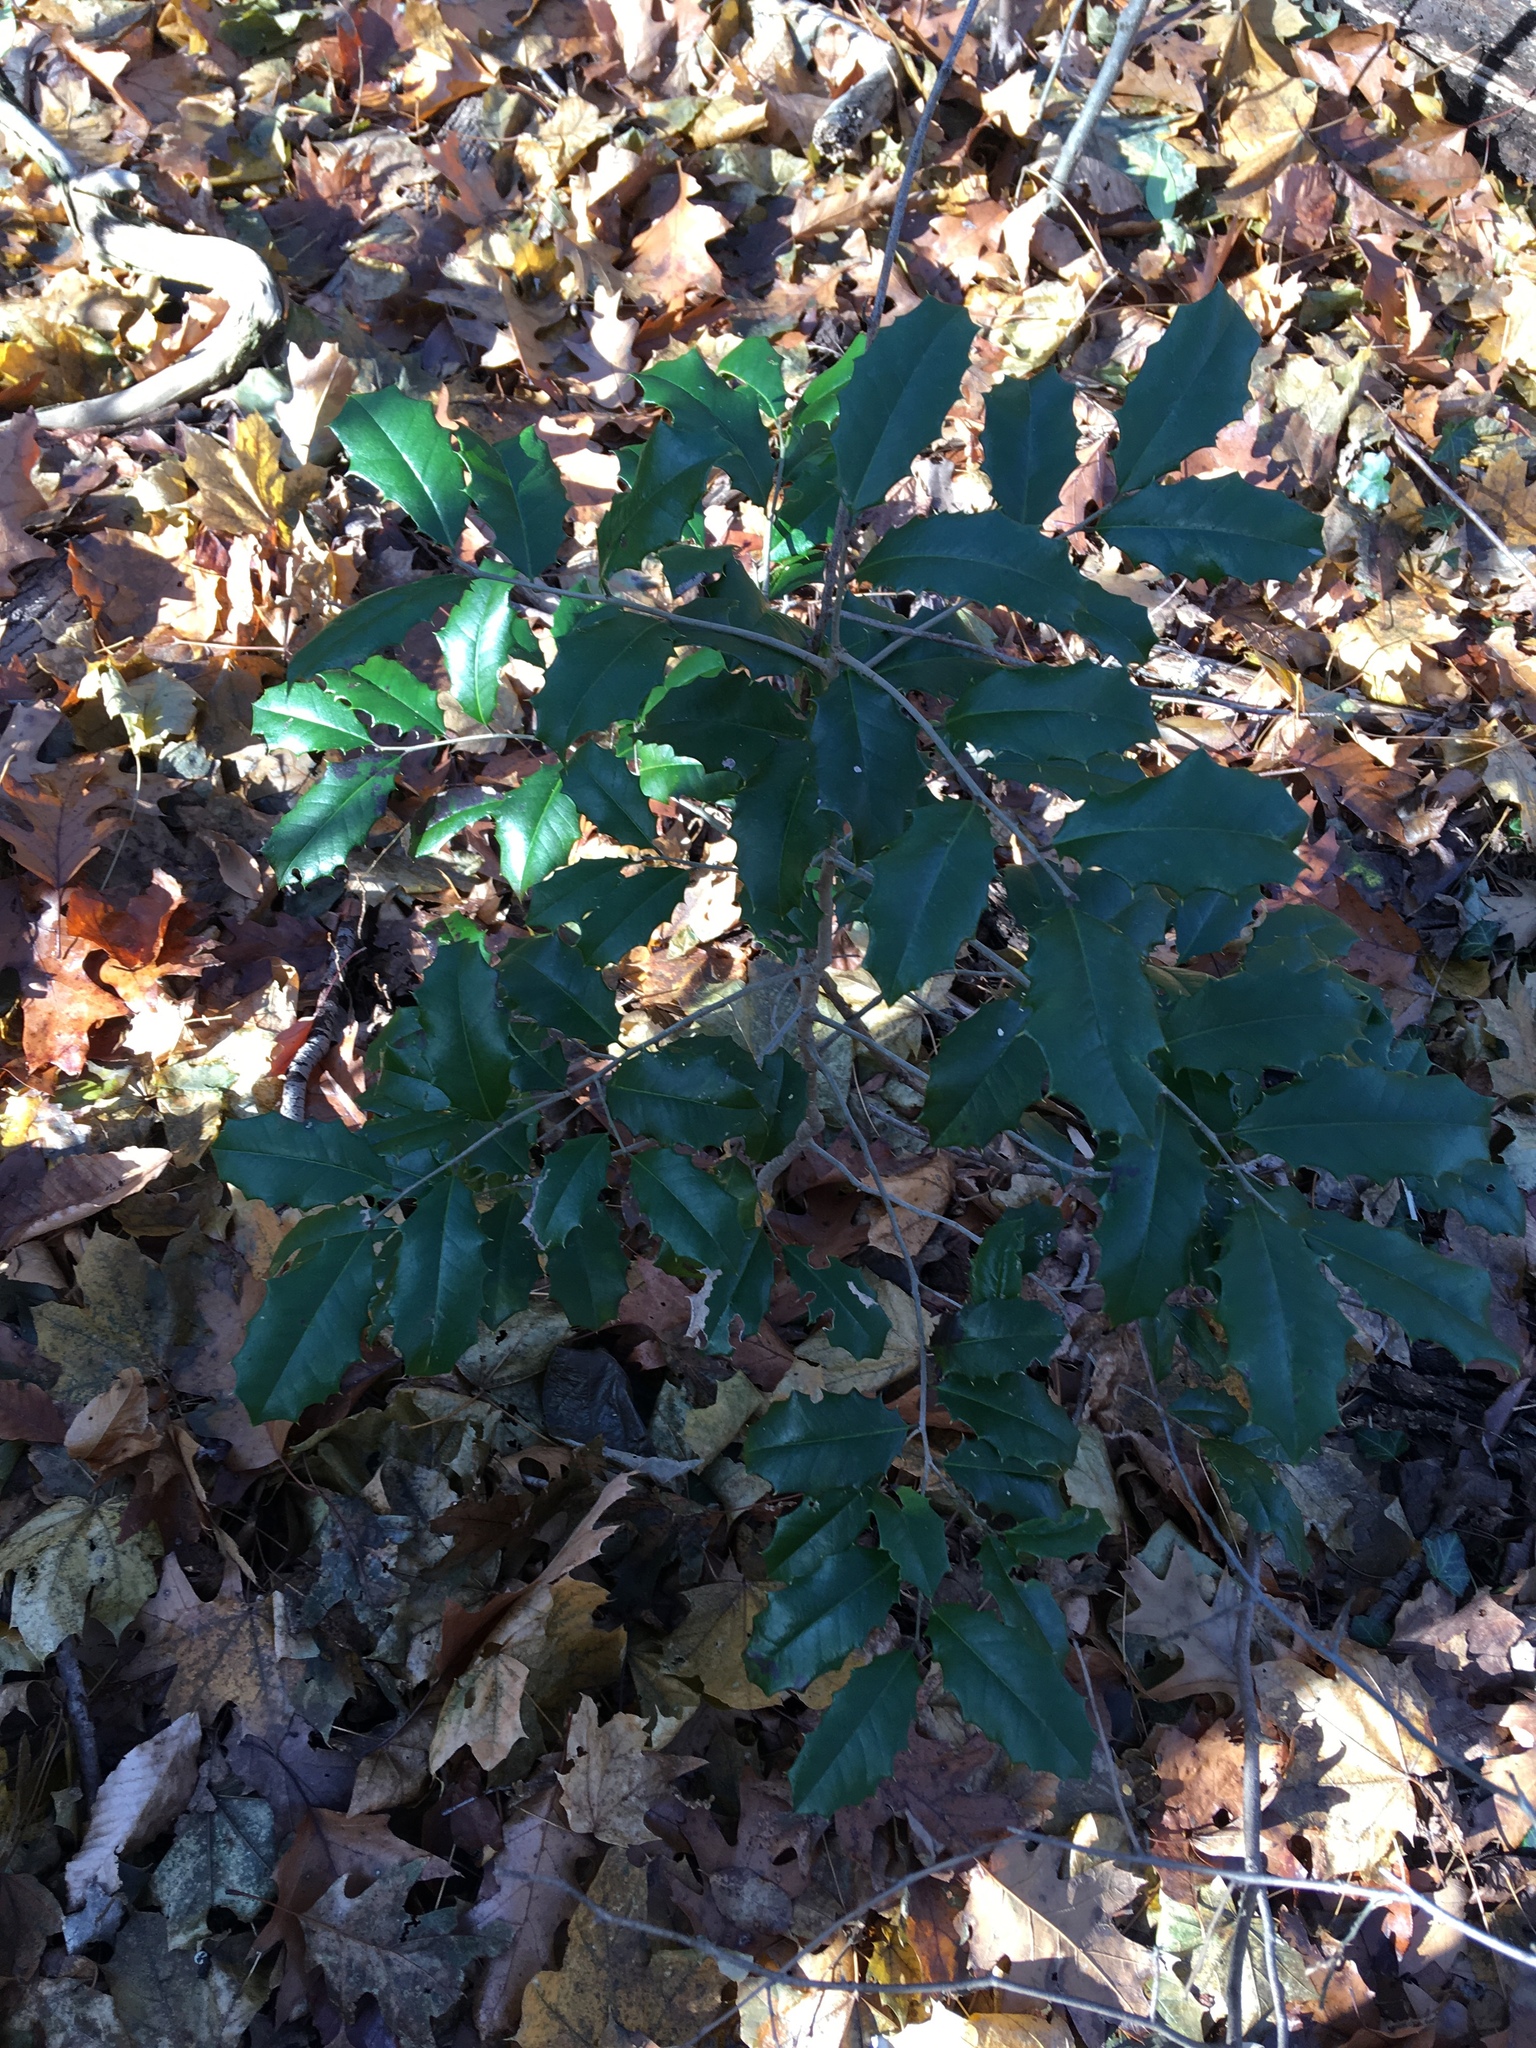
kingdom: Plantae
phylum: Tracheophyta
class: Magnoliopsida
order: Aquifoliales
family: Aquifoliaceae
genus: Ilex
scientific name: Ilex opaca
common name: American holly
